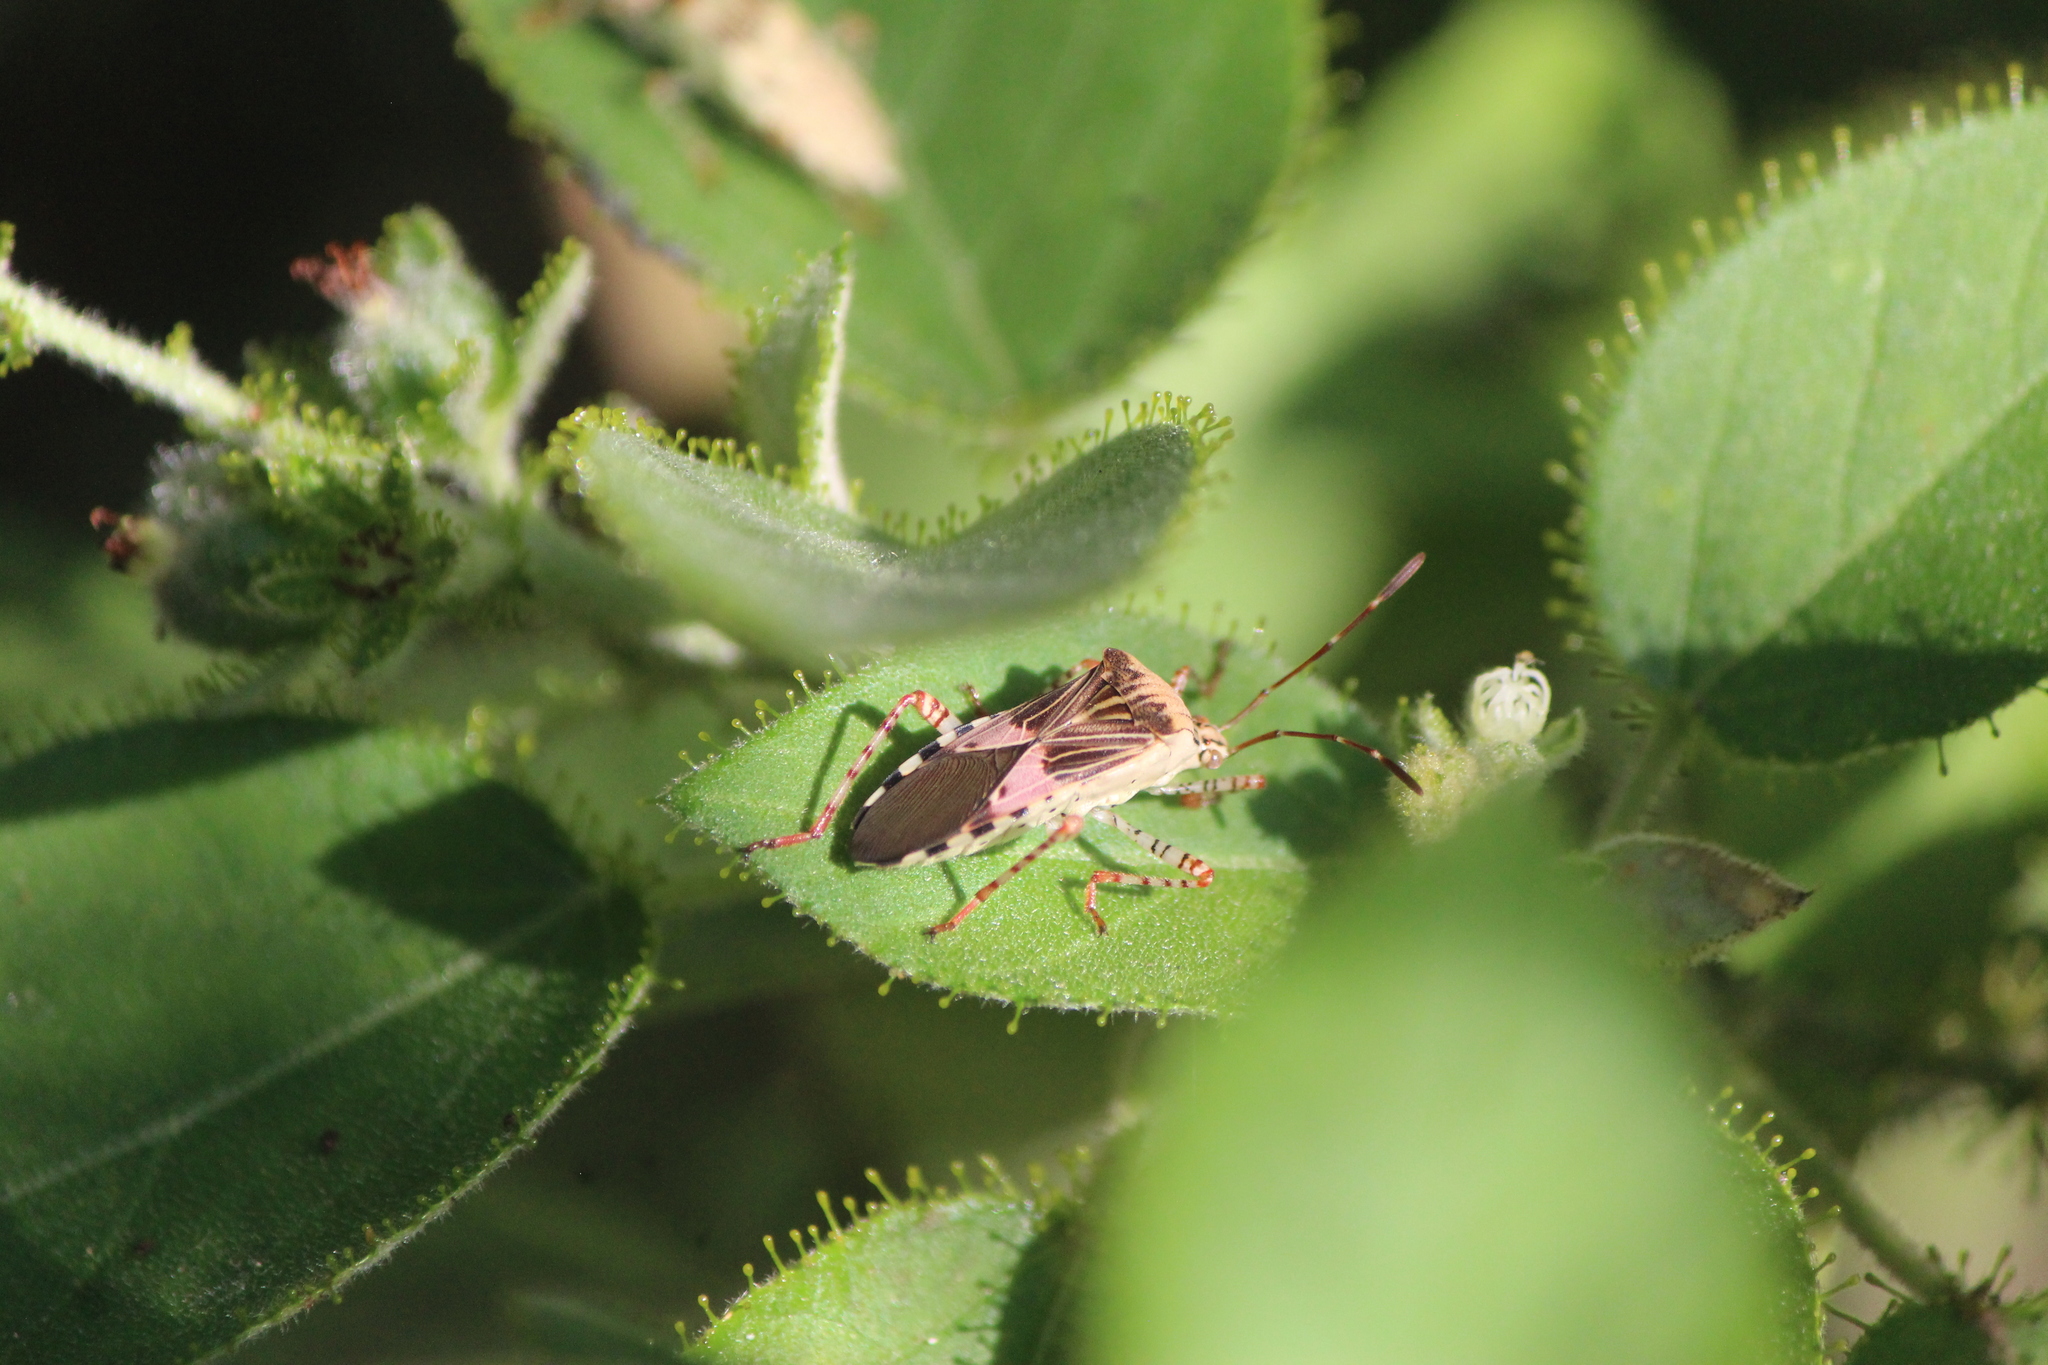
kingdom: Animalia
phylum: Arthropoda
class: Insecta
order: Hemiptera
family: Coreidae
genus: Hypselonotus
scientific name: Hypselonotus punctiventris
